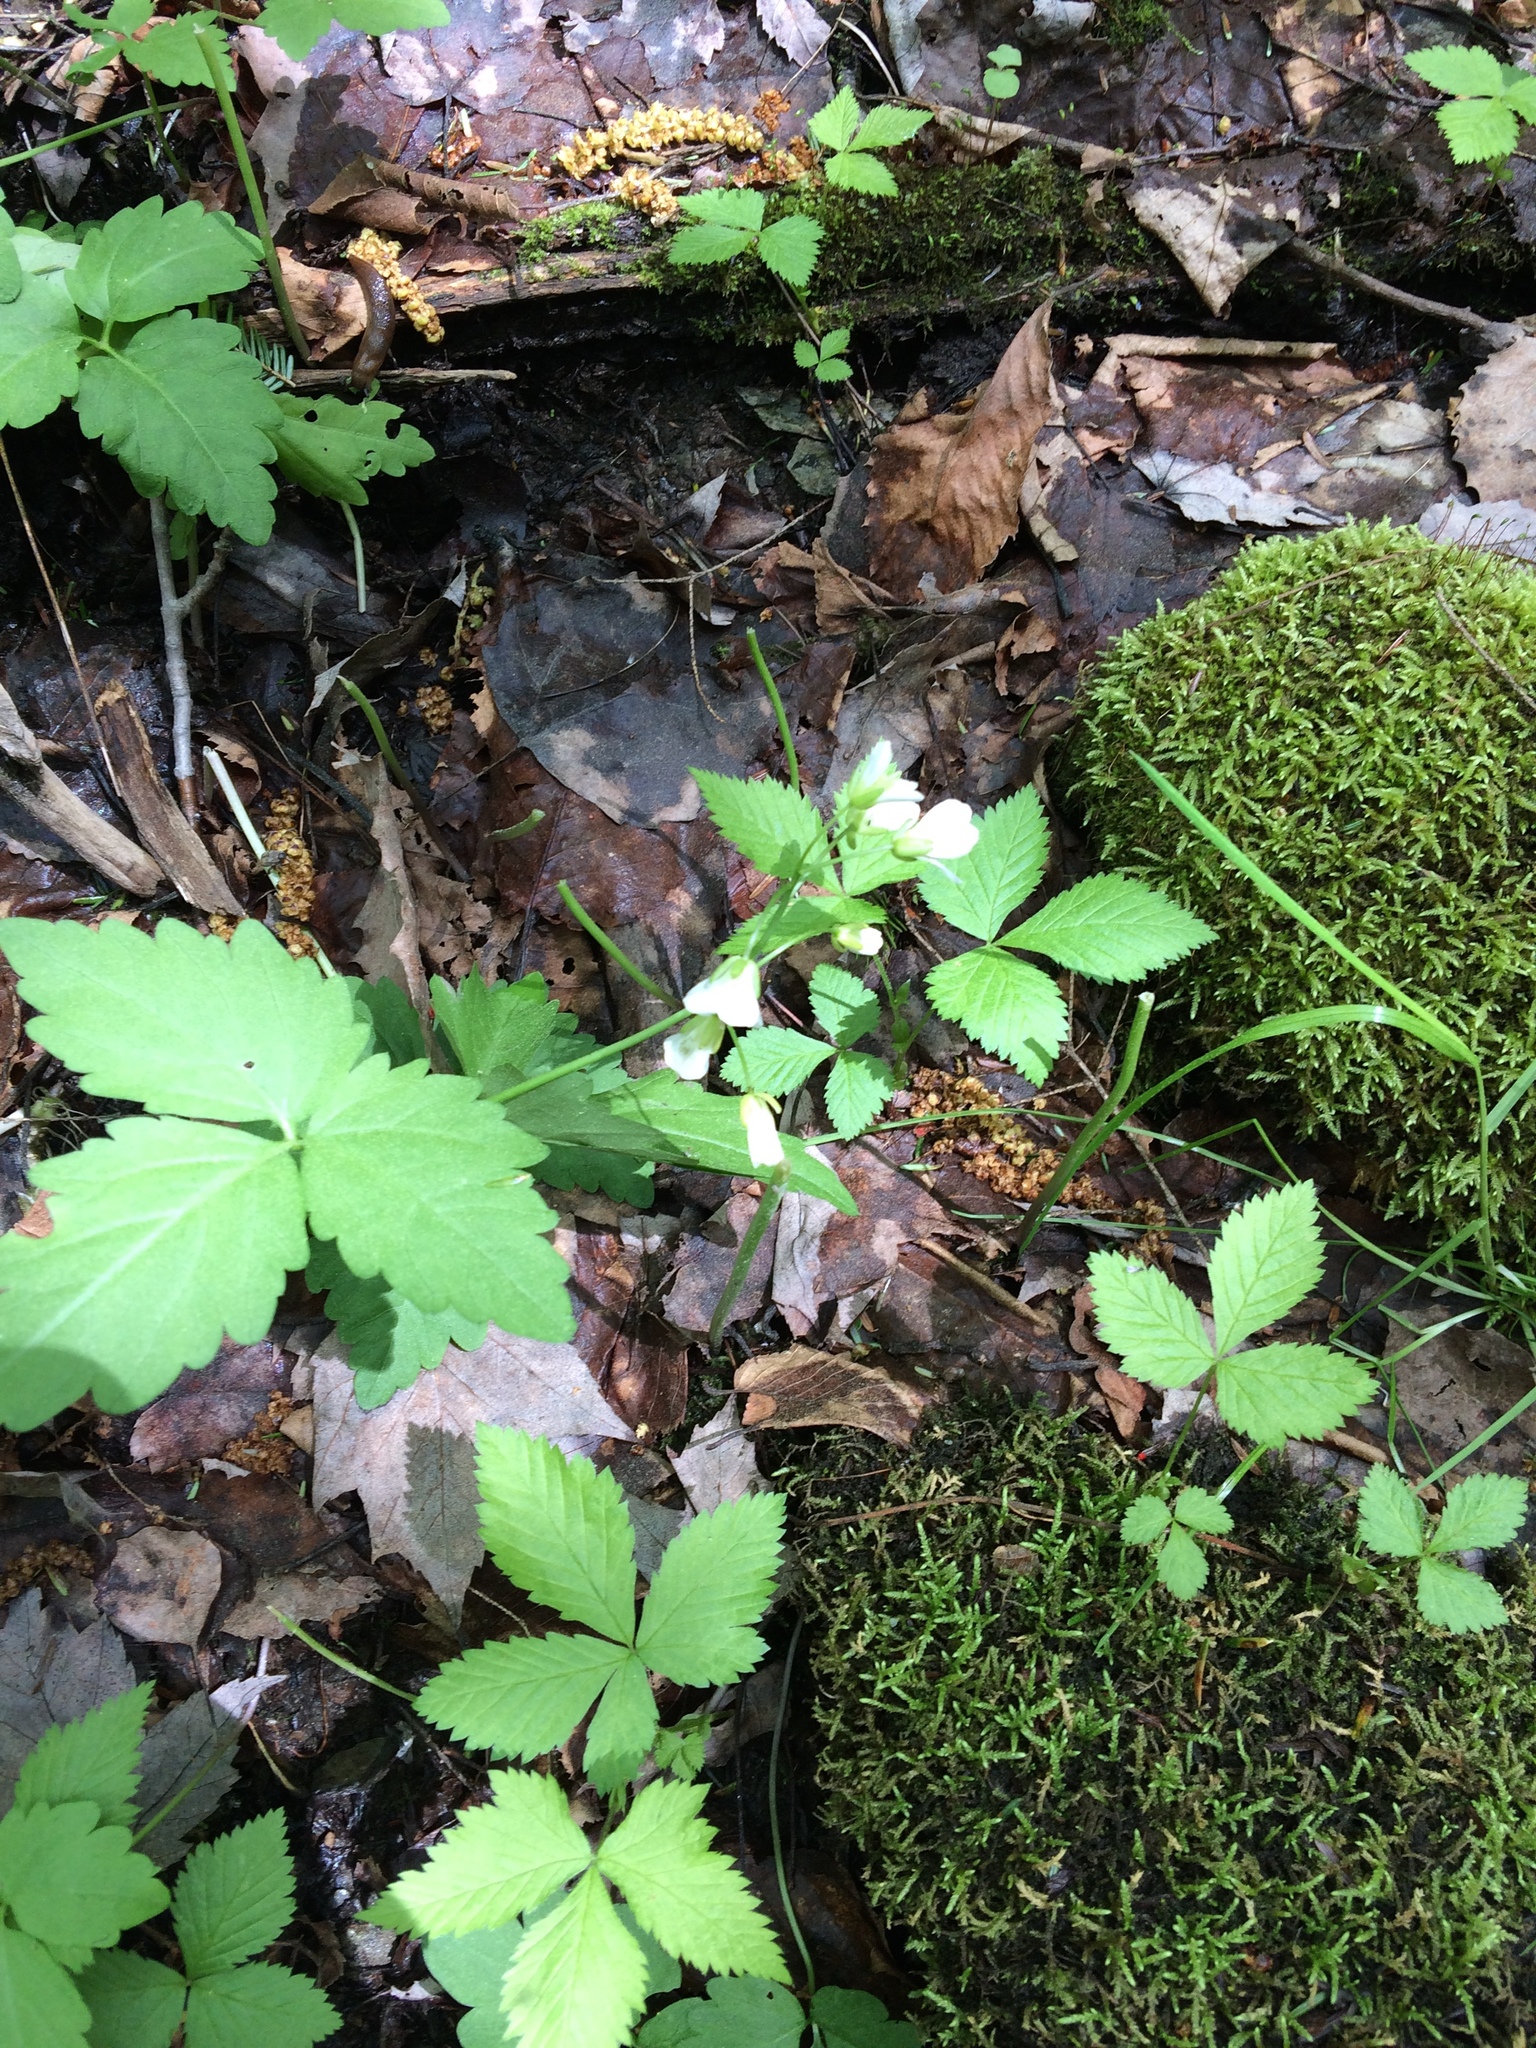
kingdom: Plantae
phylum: Tracheophyta
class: Magnoliopsida
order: Brassicales
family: Brassicaceae
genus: Cardamine
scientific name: Cardamine diphylla
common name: Broad-leaved toothwort
